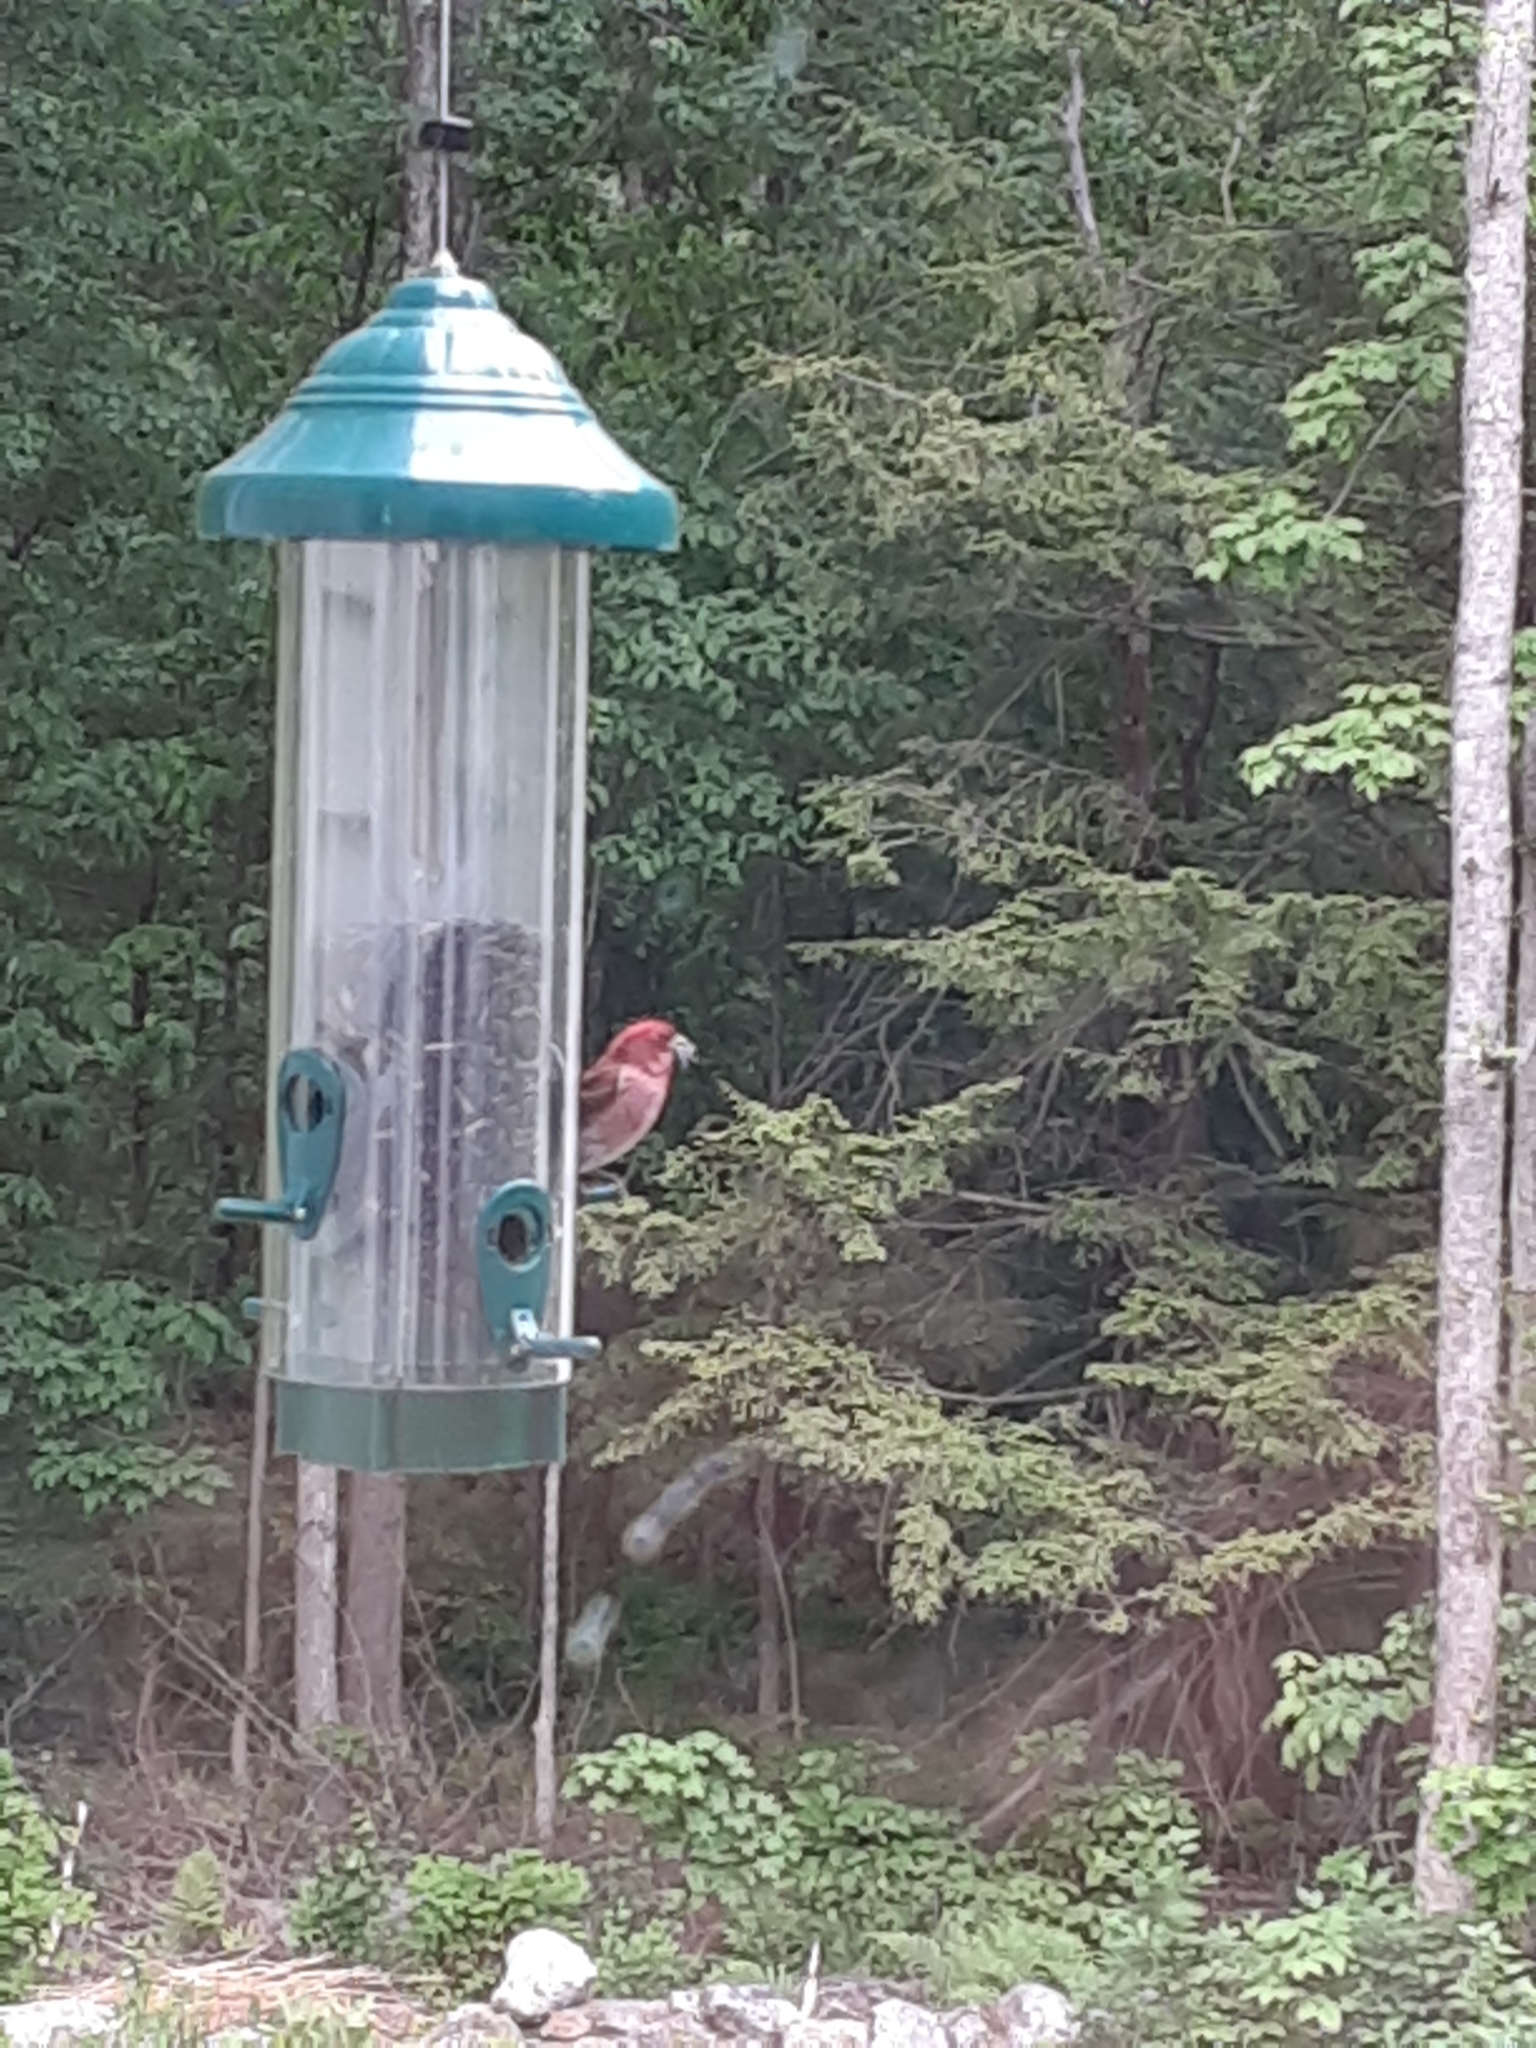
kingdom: Animalia
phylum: Chordata
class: Aves
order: Passeriformes
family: Fringillidae
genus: Haemorhous
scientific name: Haemorhous purpureus
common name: Purple finch
